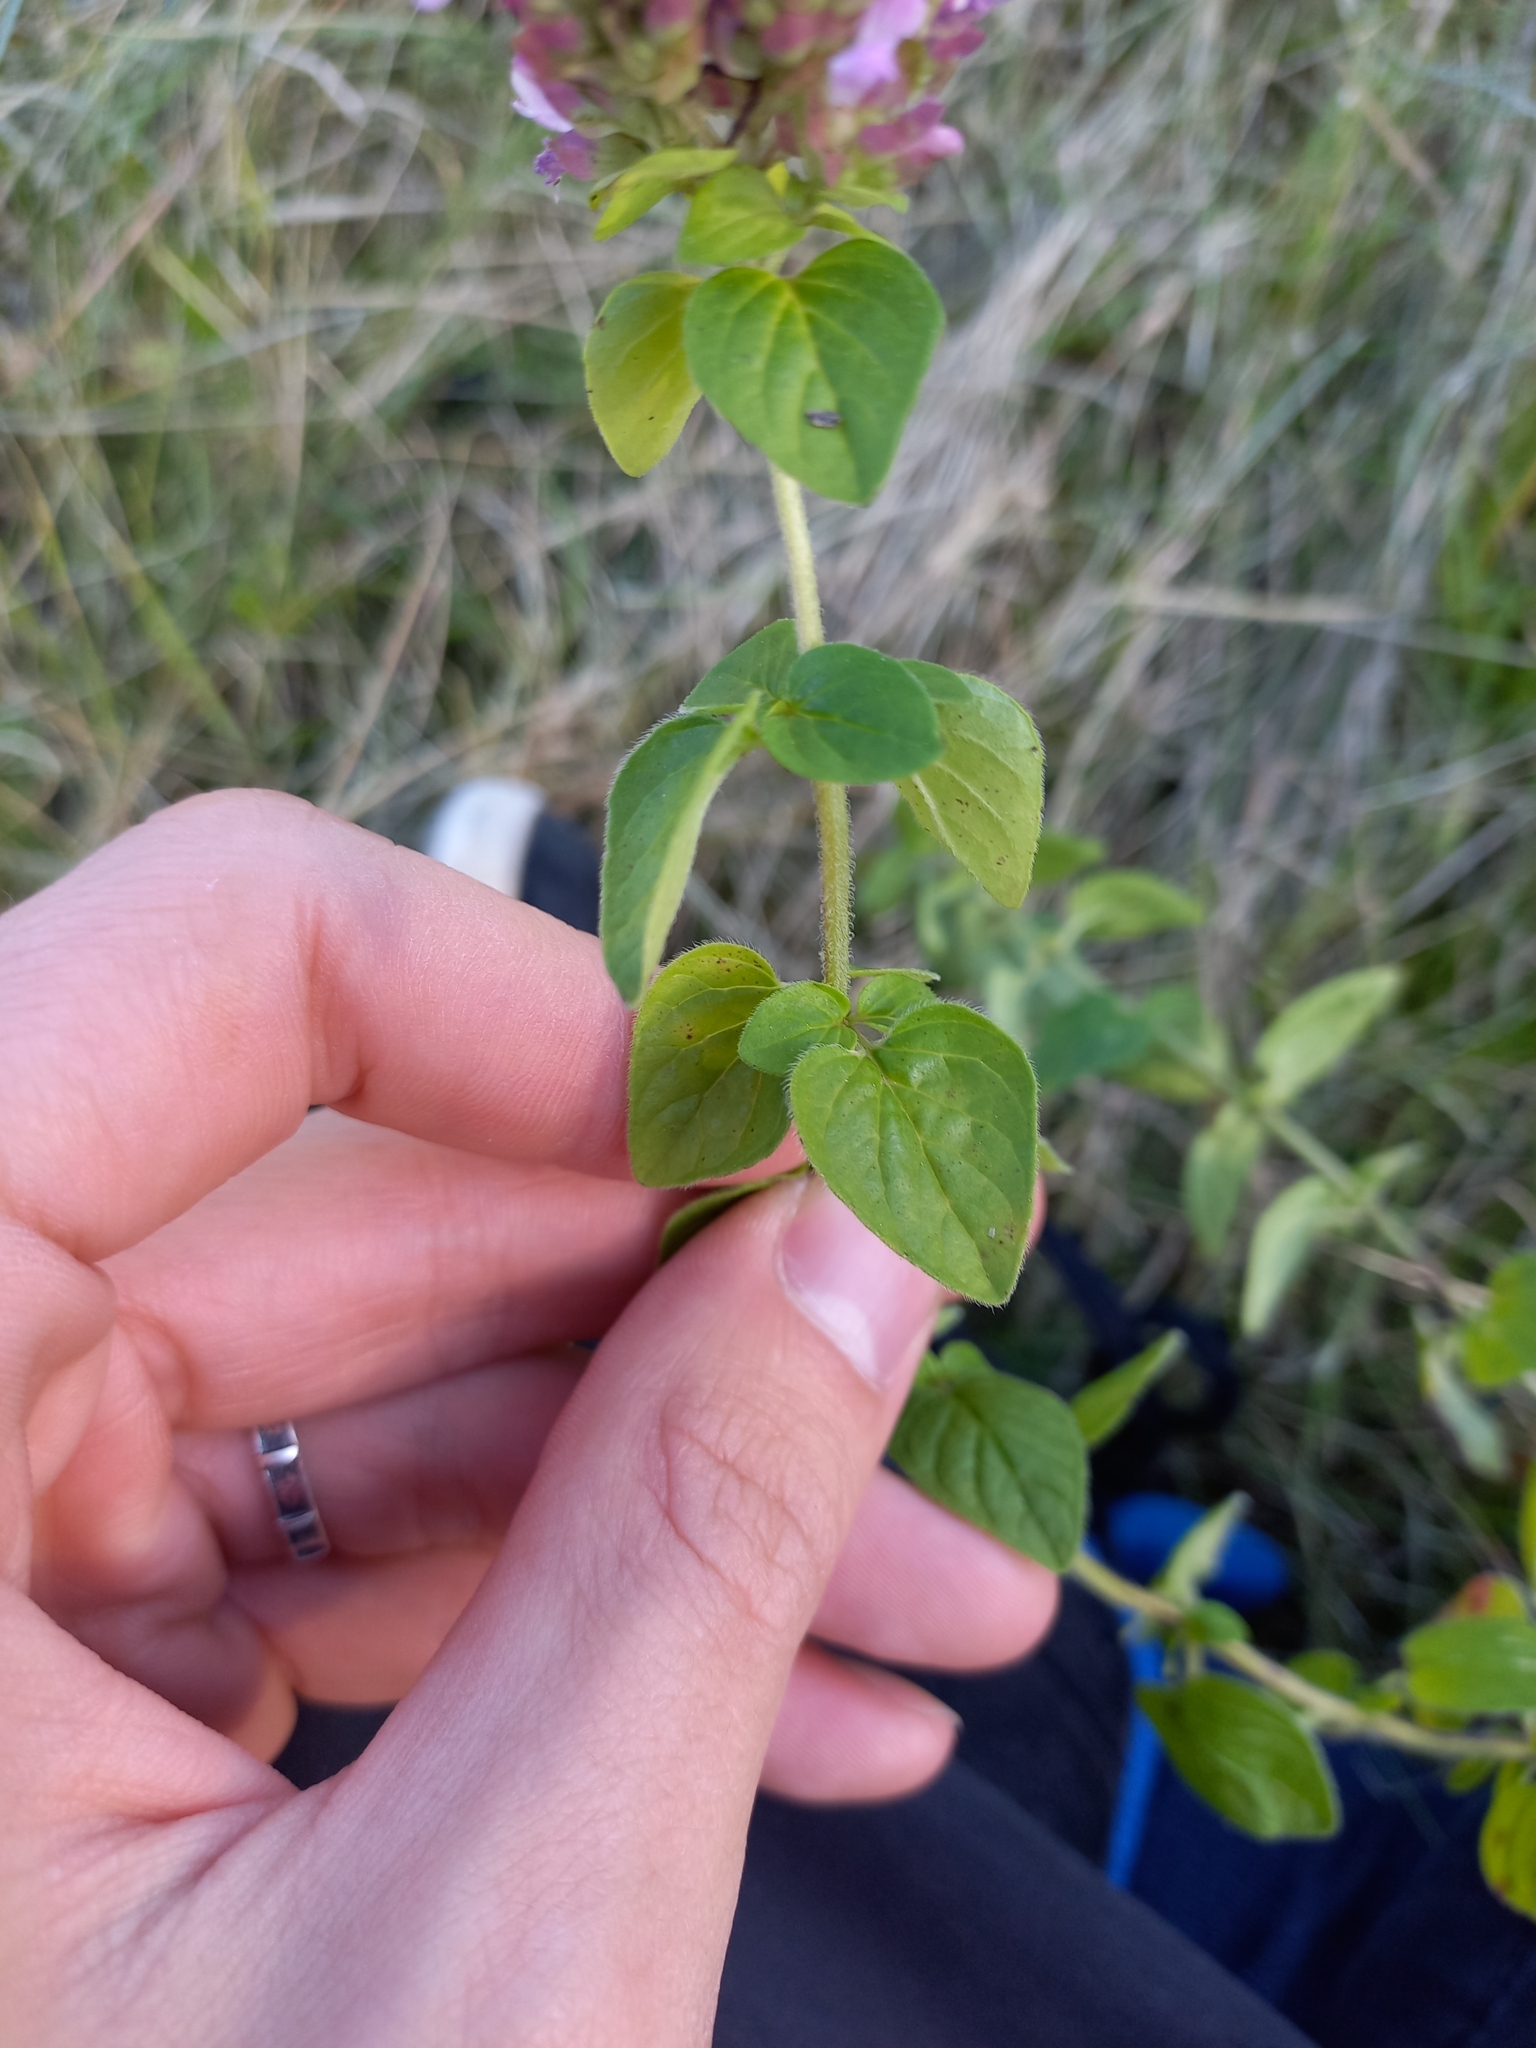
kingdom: Plantae
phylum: Tracheophyta
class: Magnoliopsida
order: Lamiales
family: Lamiaceae
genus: Origanum
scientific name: Origanum vulgare
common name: Wild marjoram
